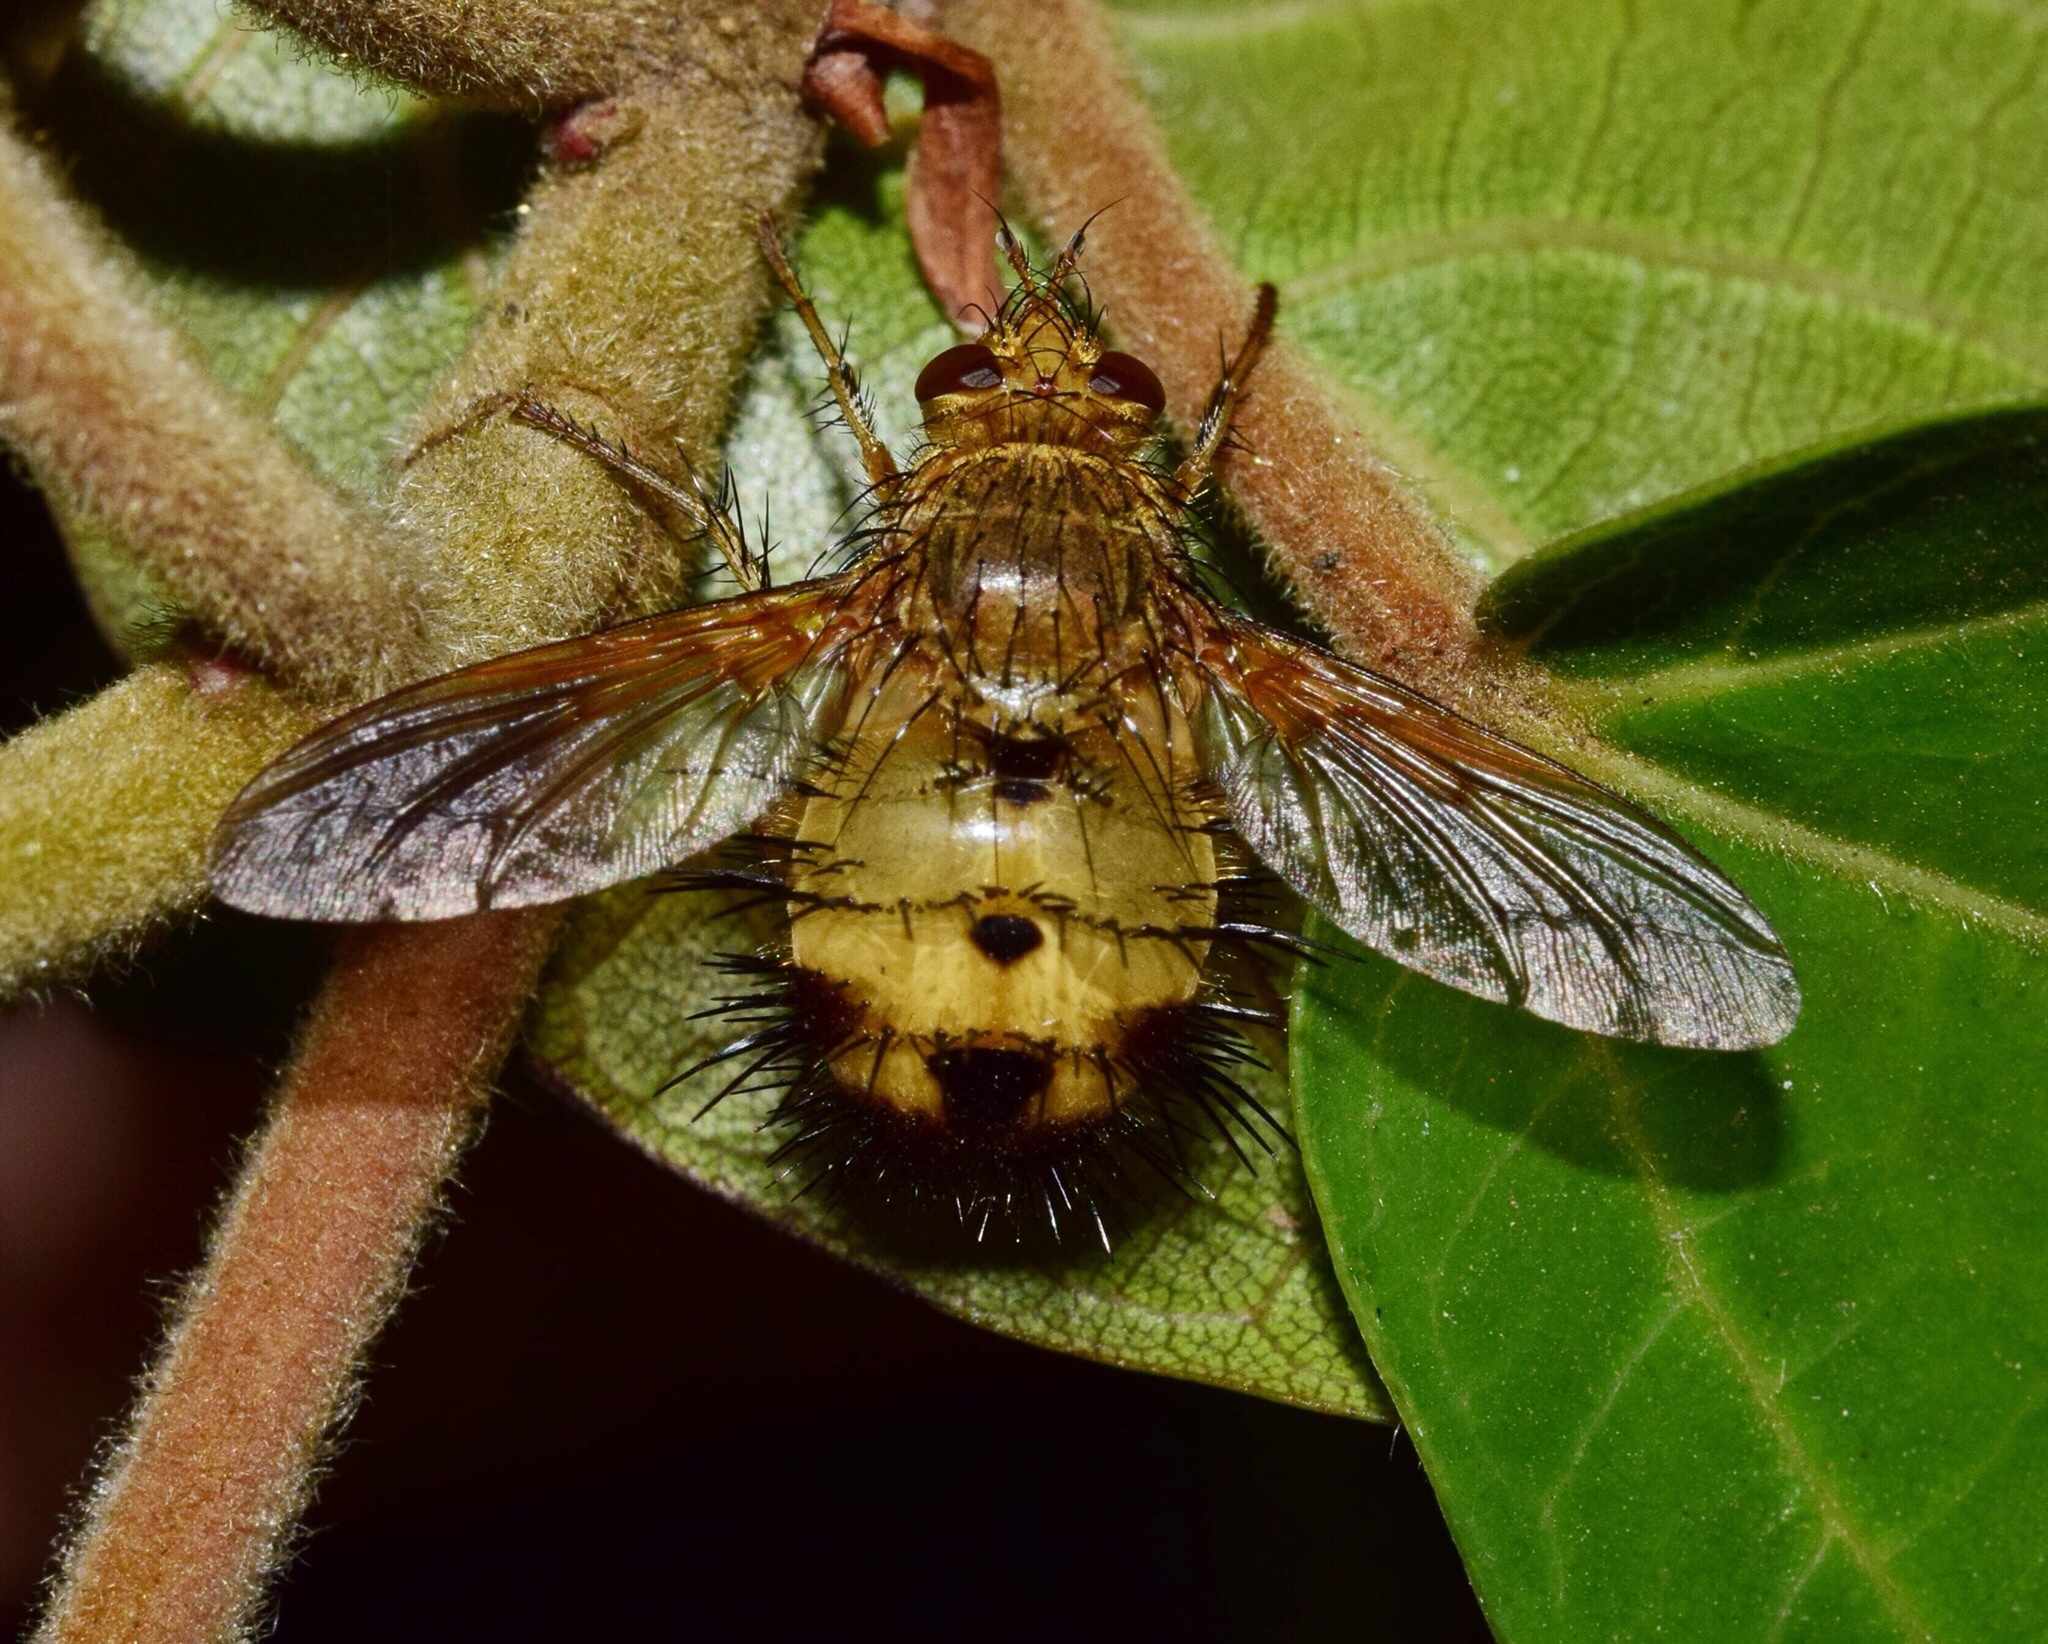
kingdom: Animalia
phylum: Arthropoda
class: Insecta
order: Diptera
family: Tachinidae
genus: Dejeania
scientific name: Dejeania bombylans
